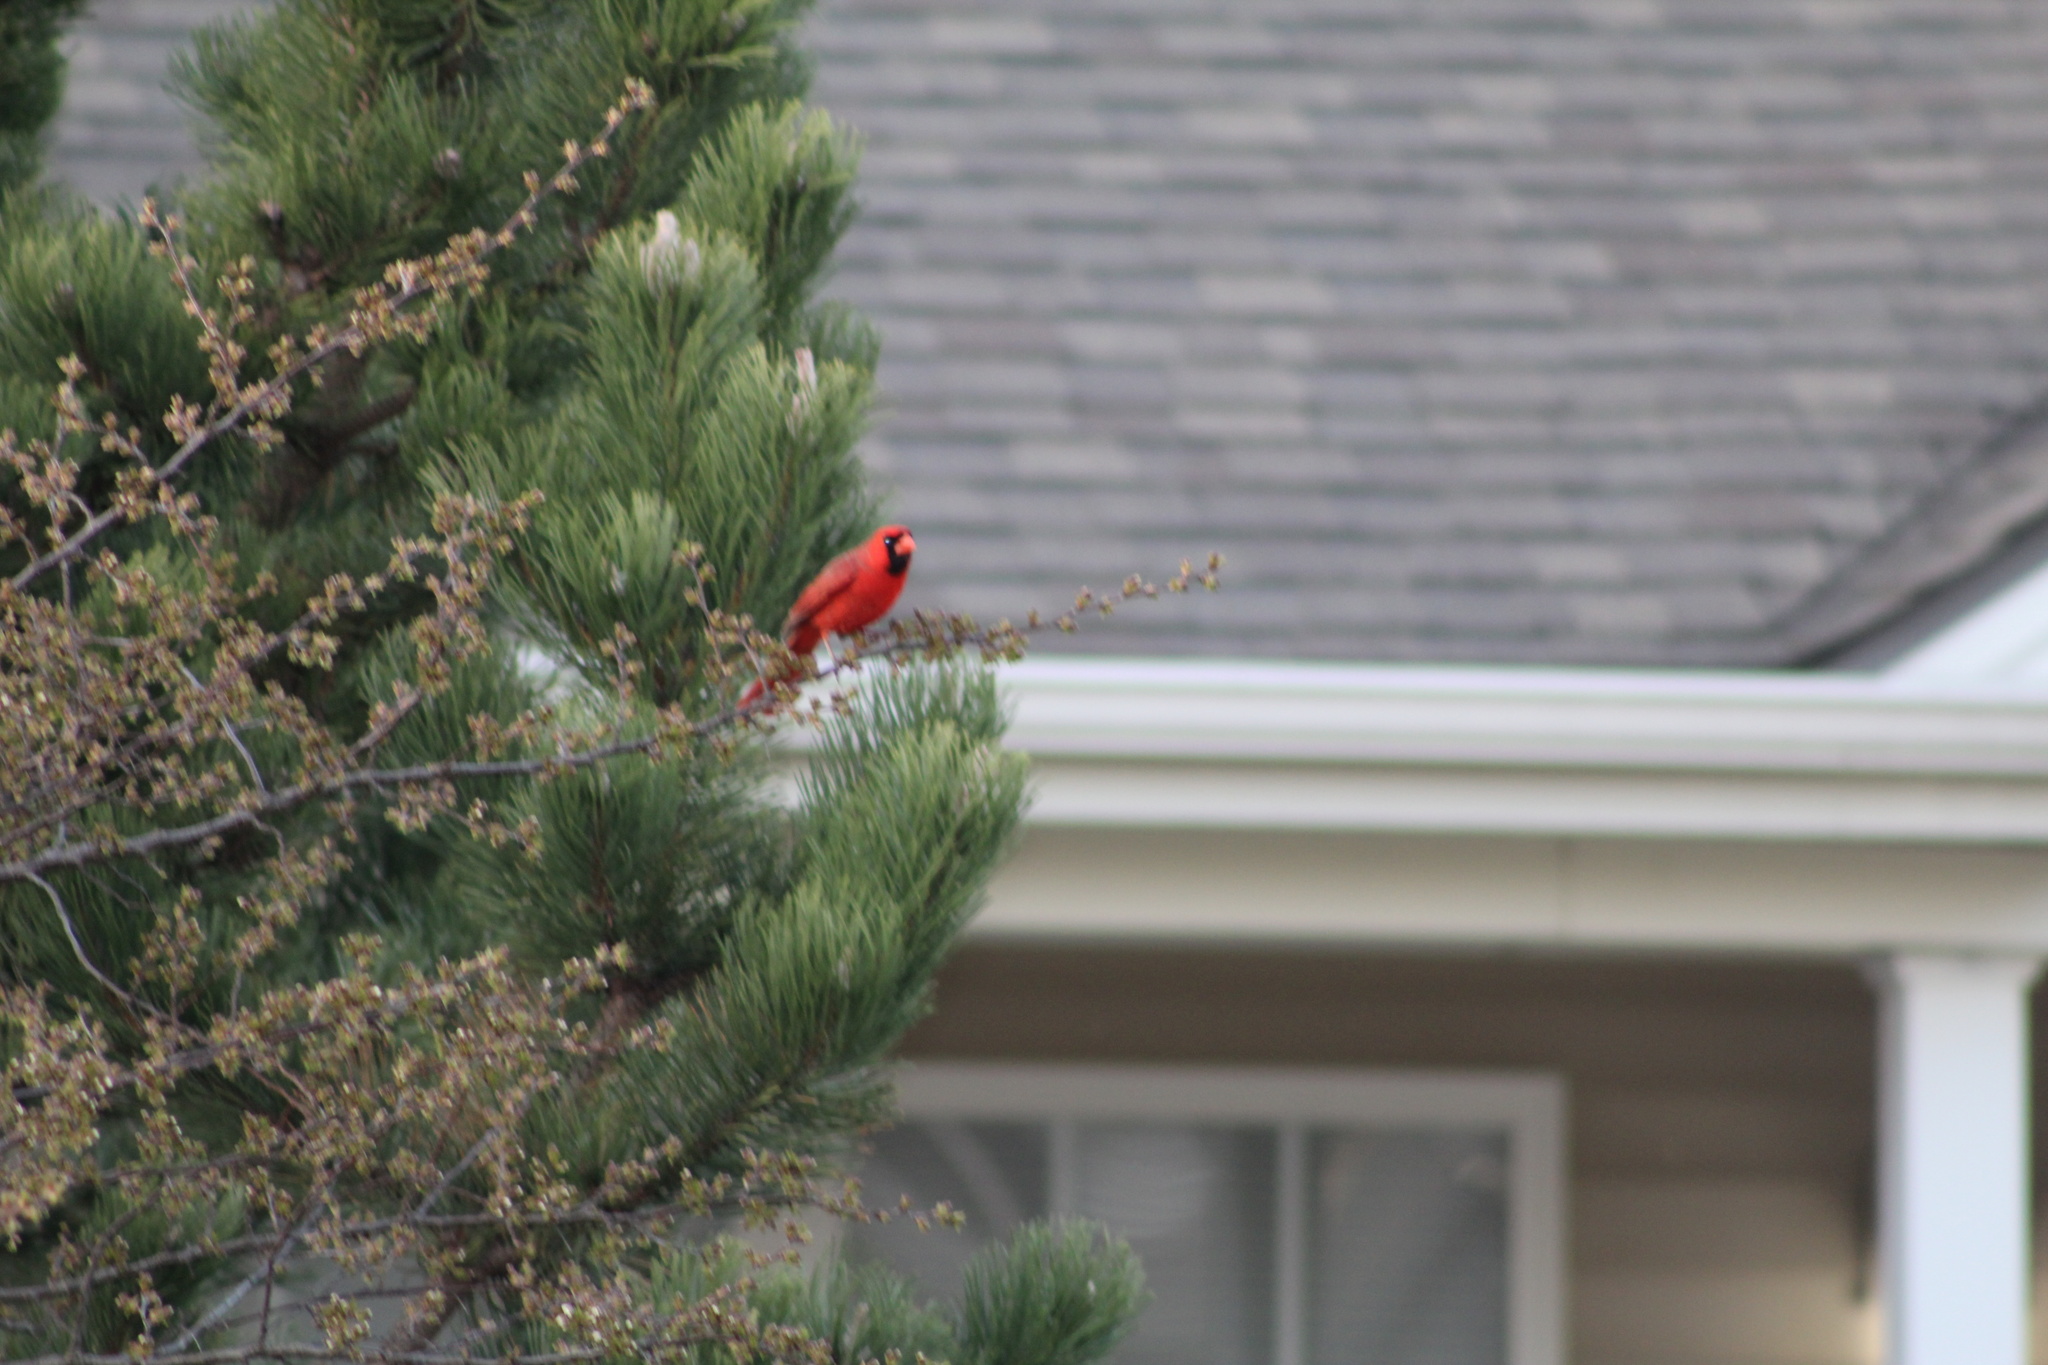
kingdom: Animalia
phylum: Chordata
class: Aves
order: Passeriformes
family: Cardinalidae
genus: Cardinalis
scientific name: Cardinalis cardinalis
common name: Northern cardinal
